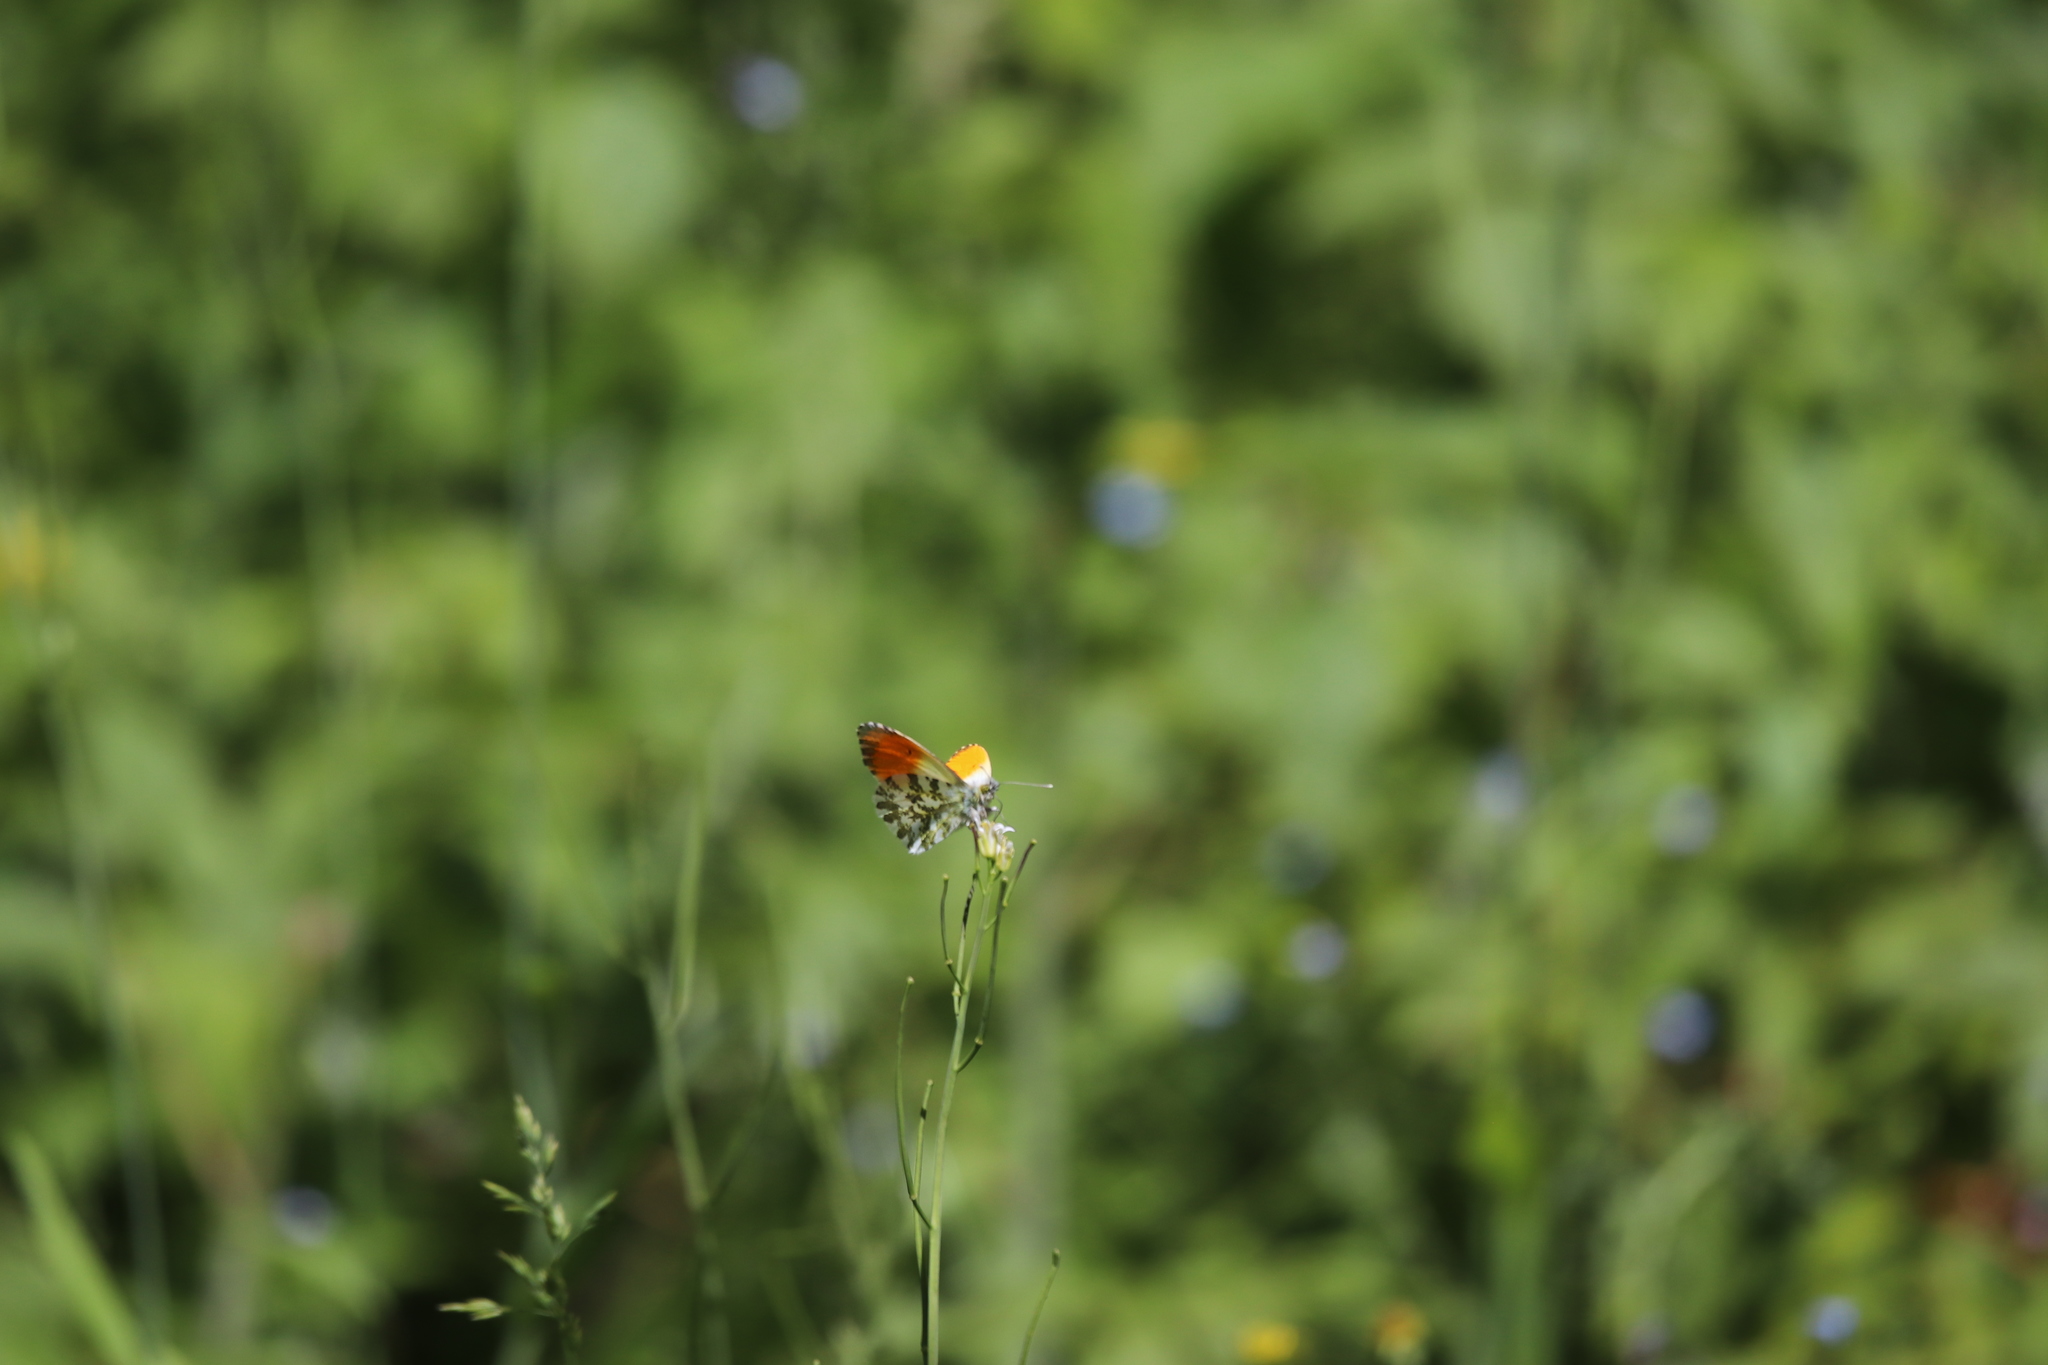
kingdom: Animalia
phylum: Arthropoda
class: Insecta
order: Lepidoptera
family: Pieridae
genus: Anthocharis
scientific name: Anthocharis cardamines
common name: Orange-tip
